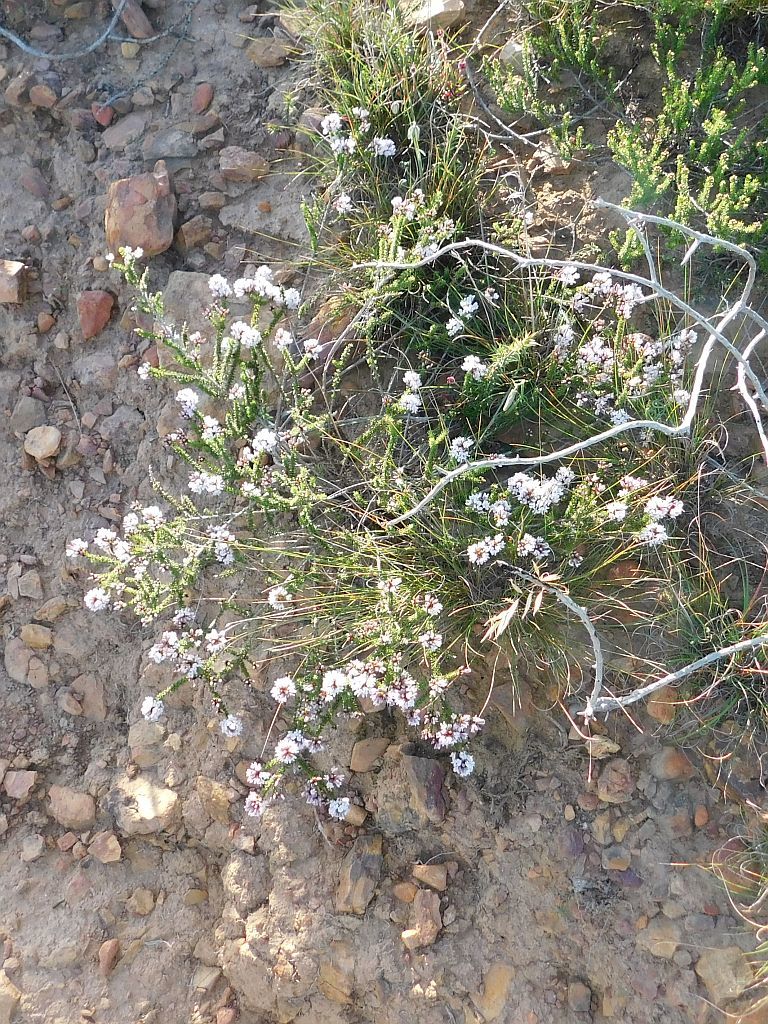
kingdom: Plantae
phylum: Tracheophyta
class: Magnoliopsida
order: Fabales
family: Fabaceae
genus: Aspalathus
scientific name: Aspalathus nigra
